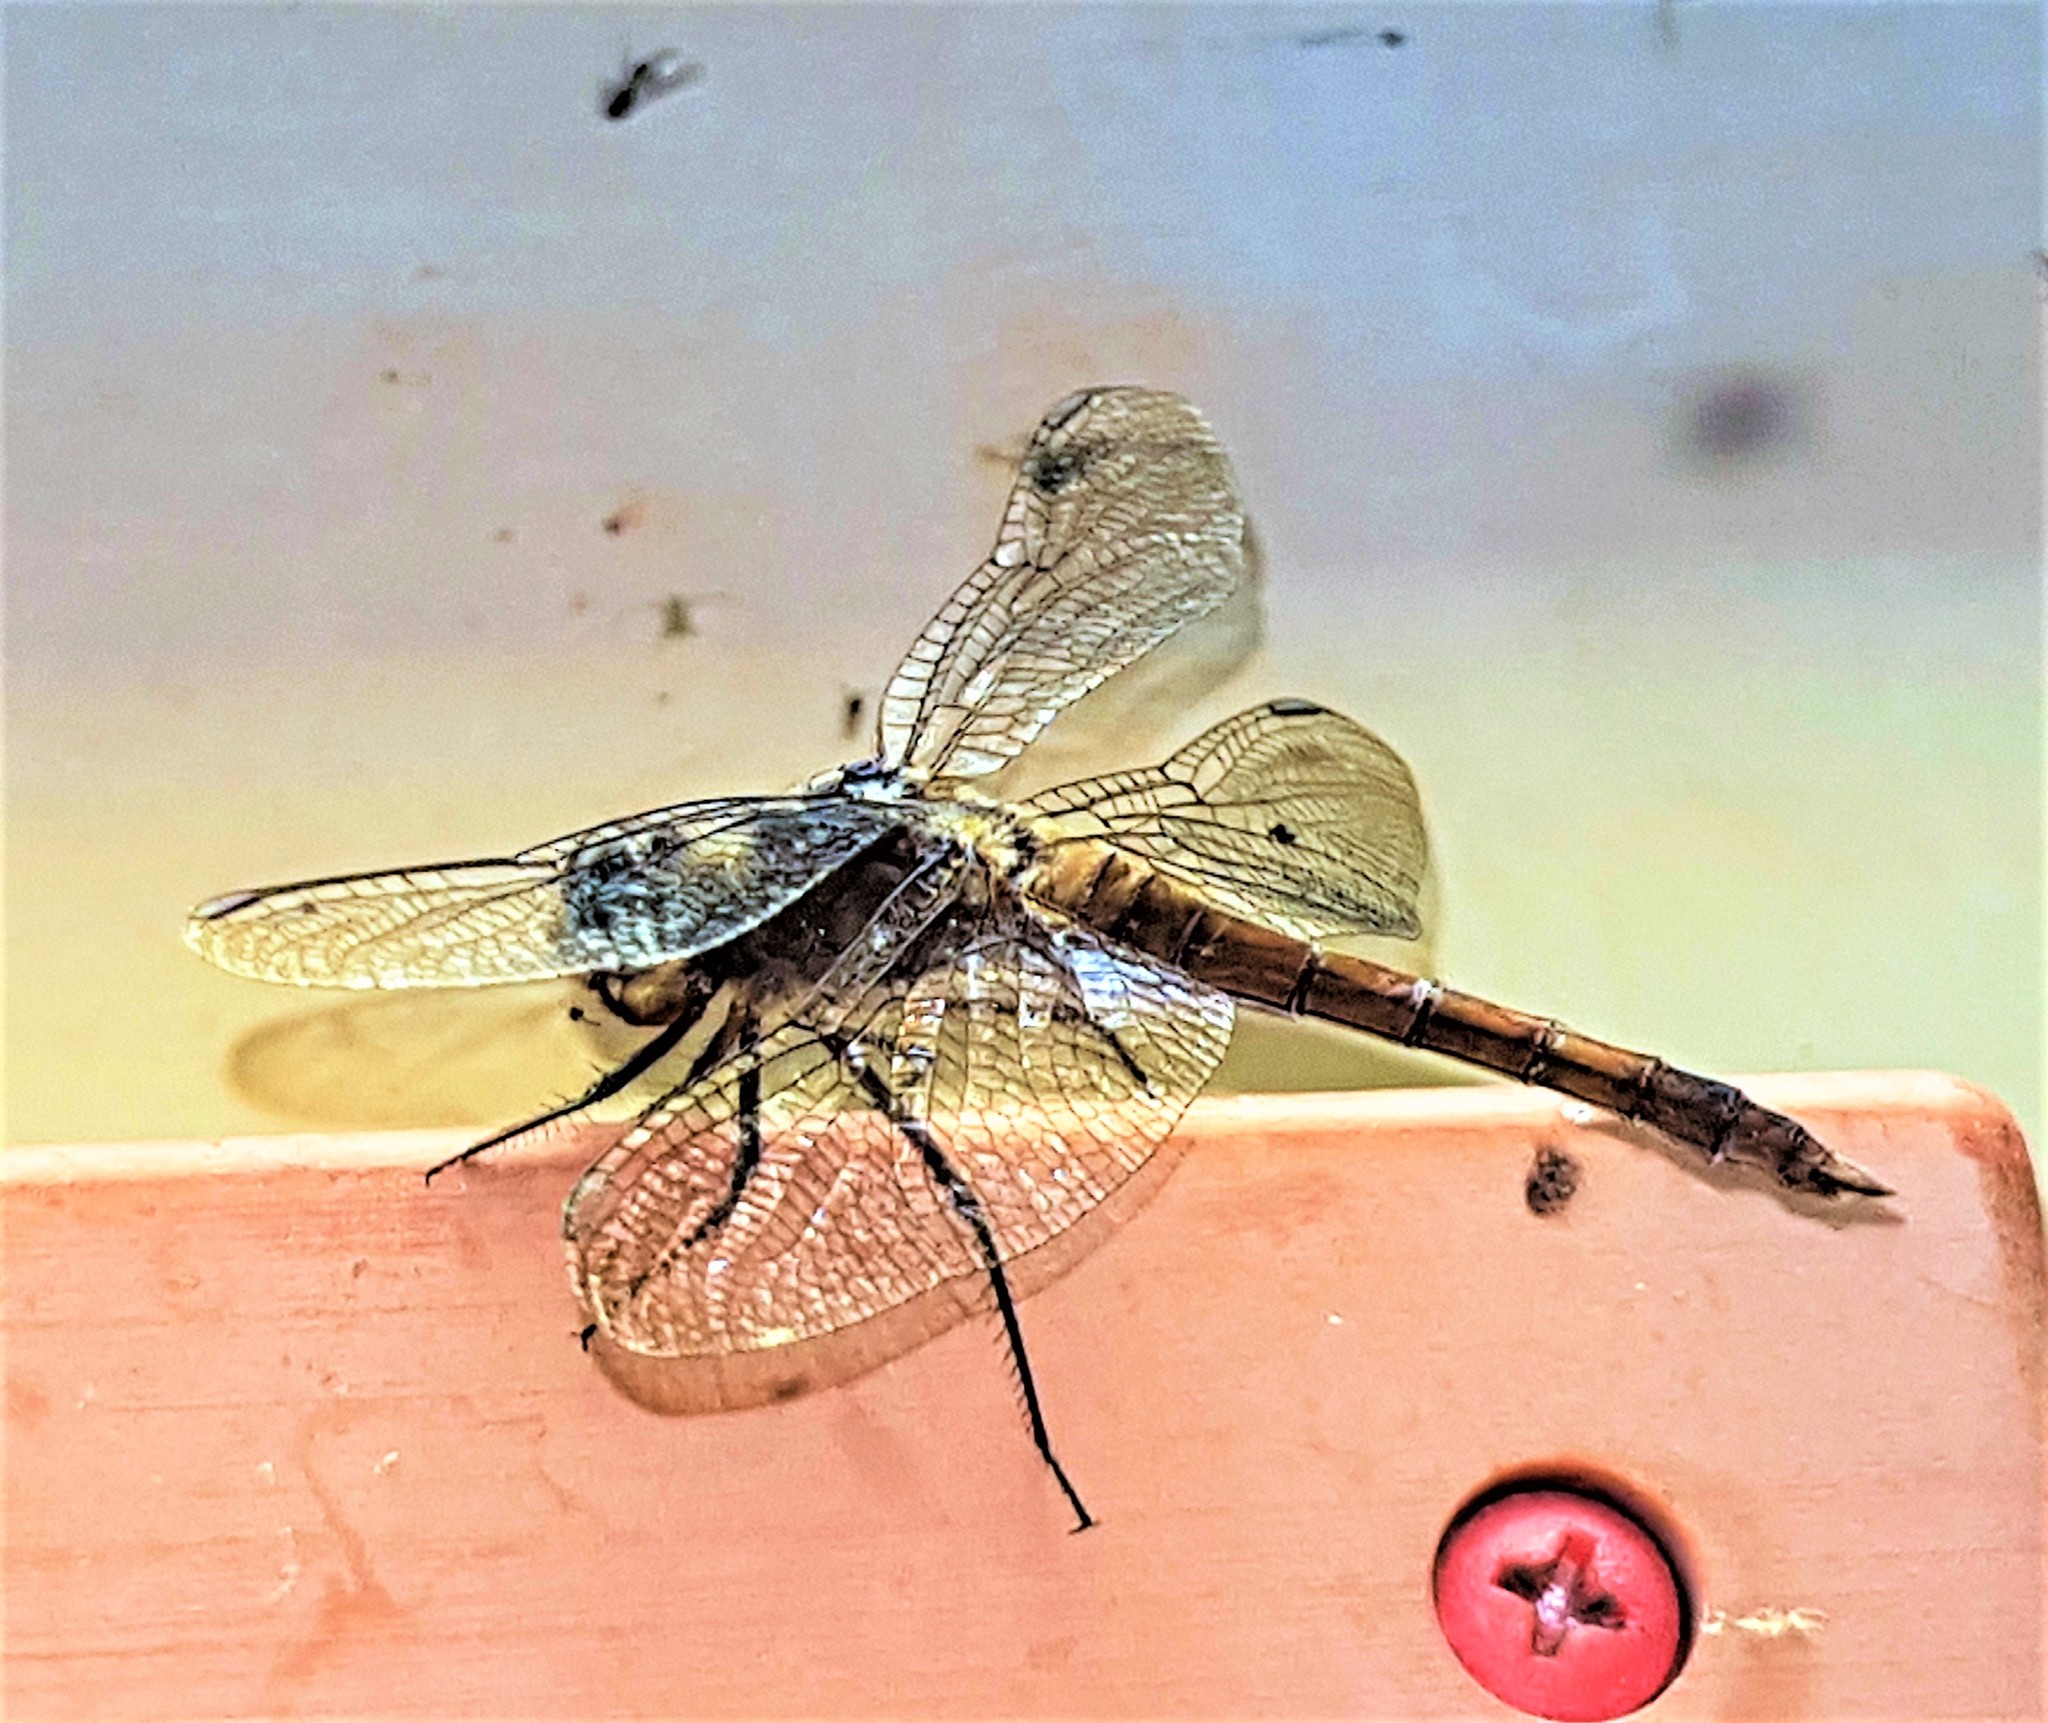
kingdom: Animalia
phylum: Arthropoda
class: Insecta
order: Odonata
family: Libellulidae
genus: Brachymesia
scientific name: Brachymesia furcata
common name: Red-taled pennant
